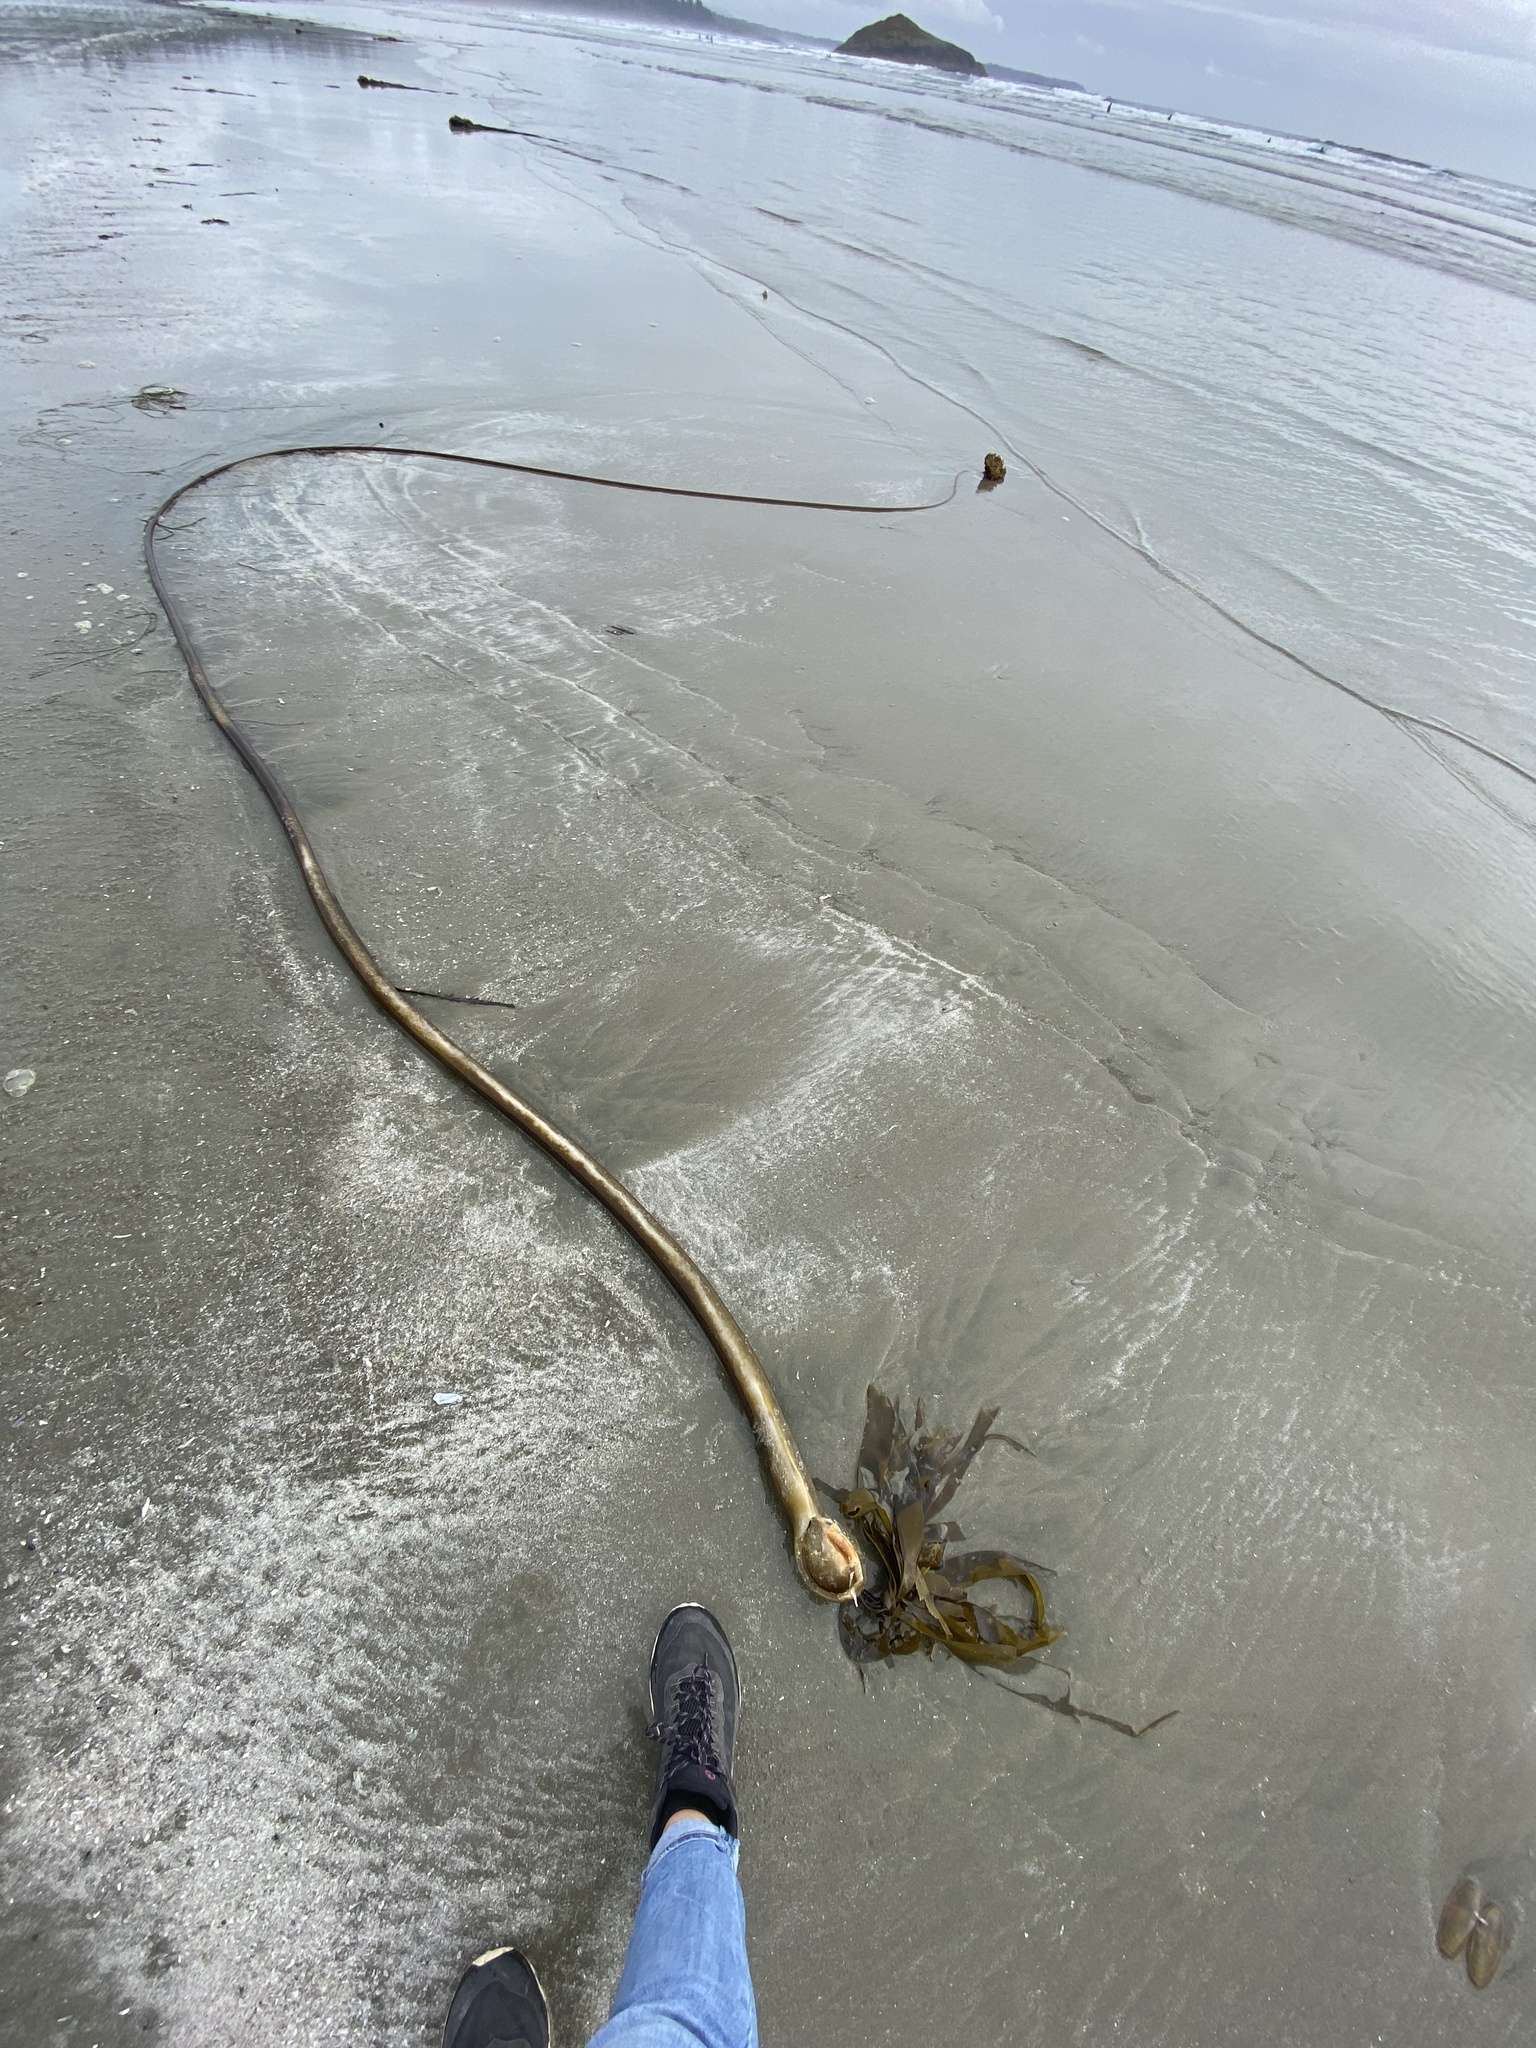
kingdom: Chromista
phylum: Ochrophyta
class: Phaeophyceae
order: Laminariales
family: Laminariaceae
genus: Nereocystis
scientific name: Nereocystis luetkeana
